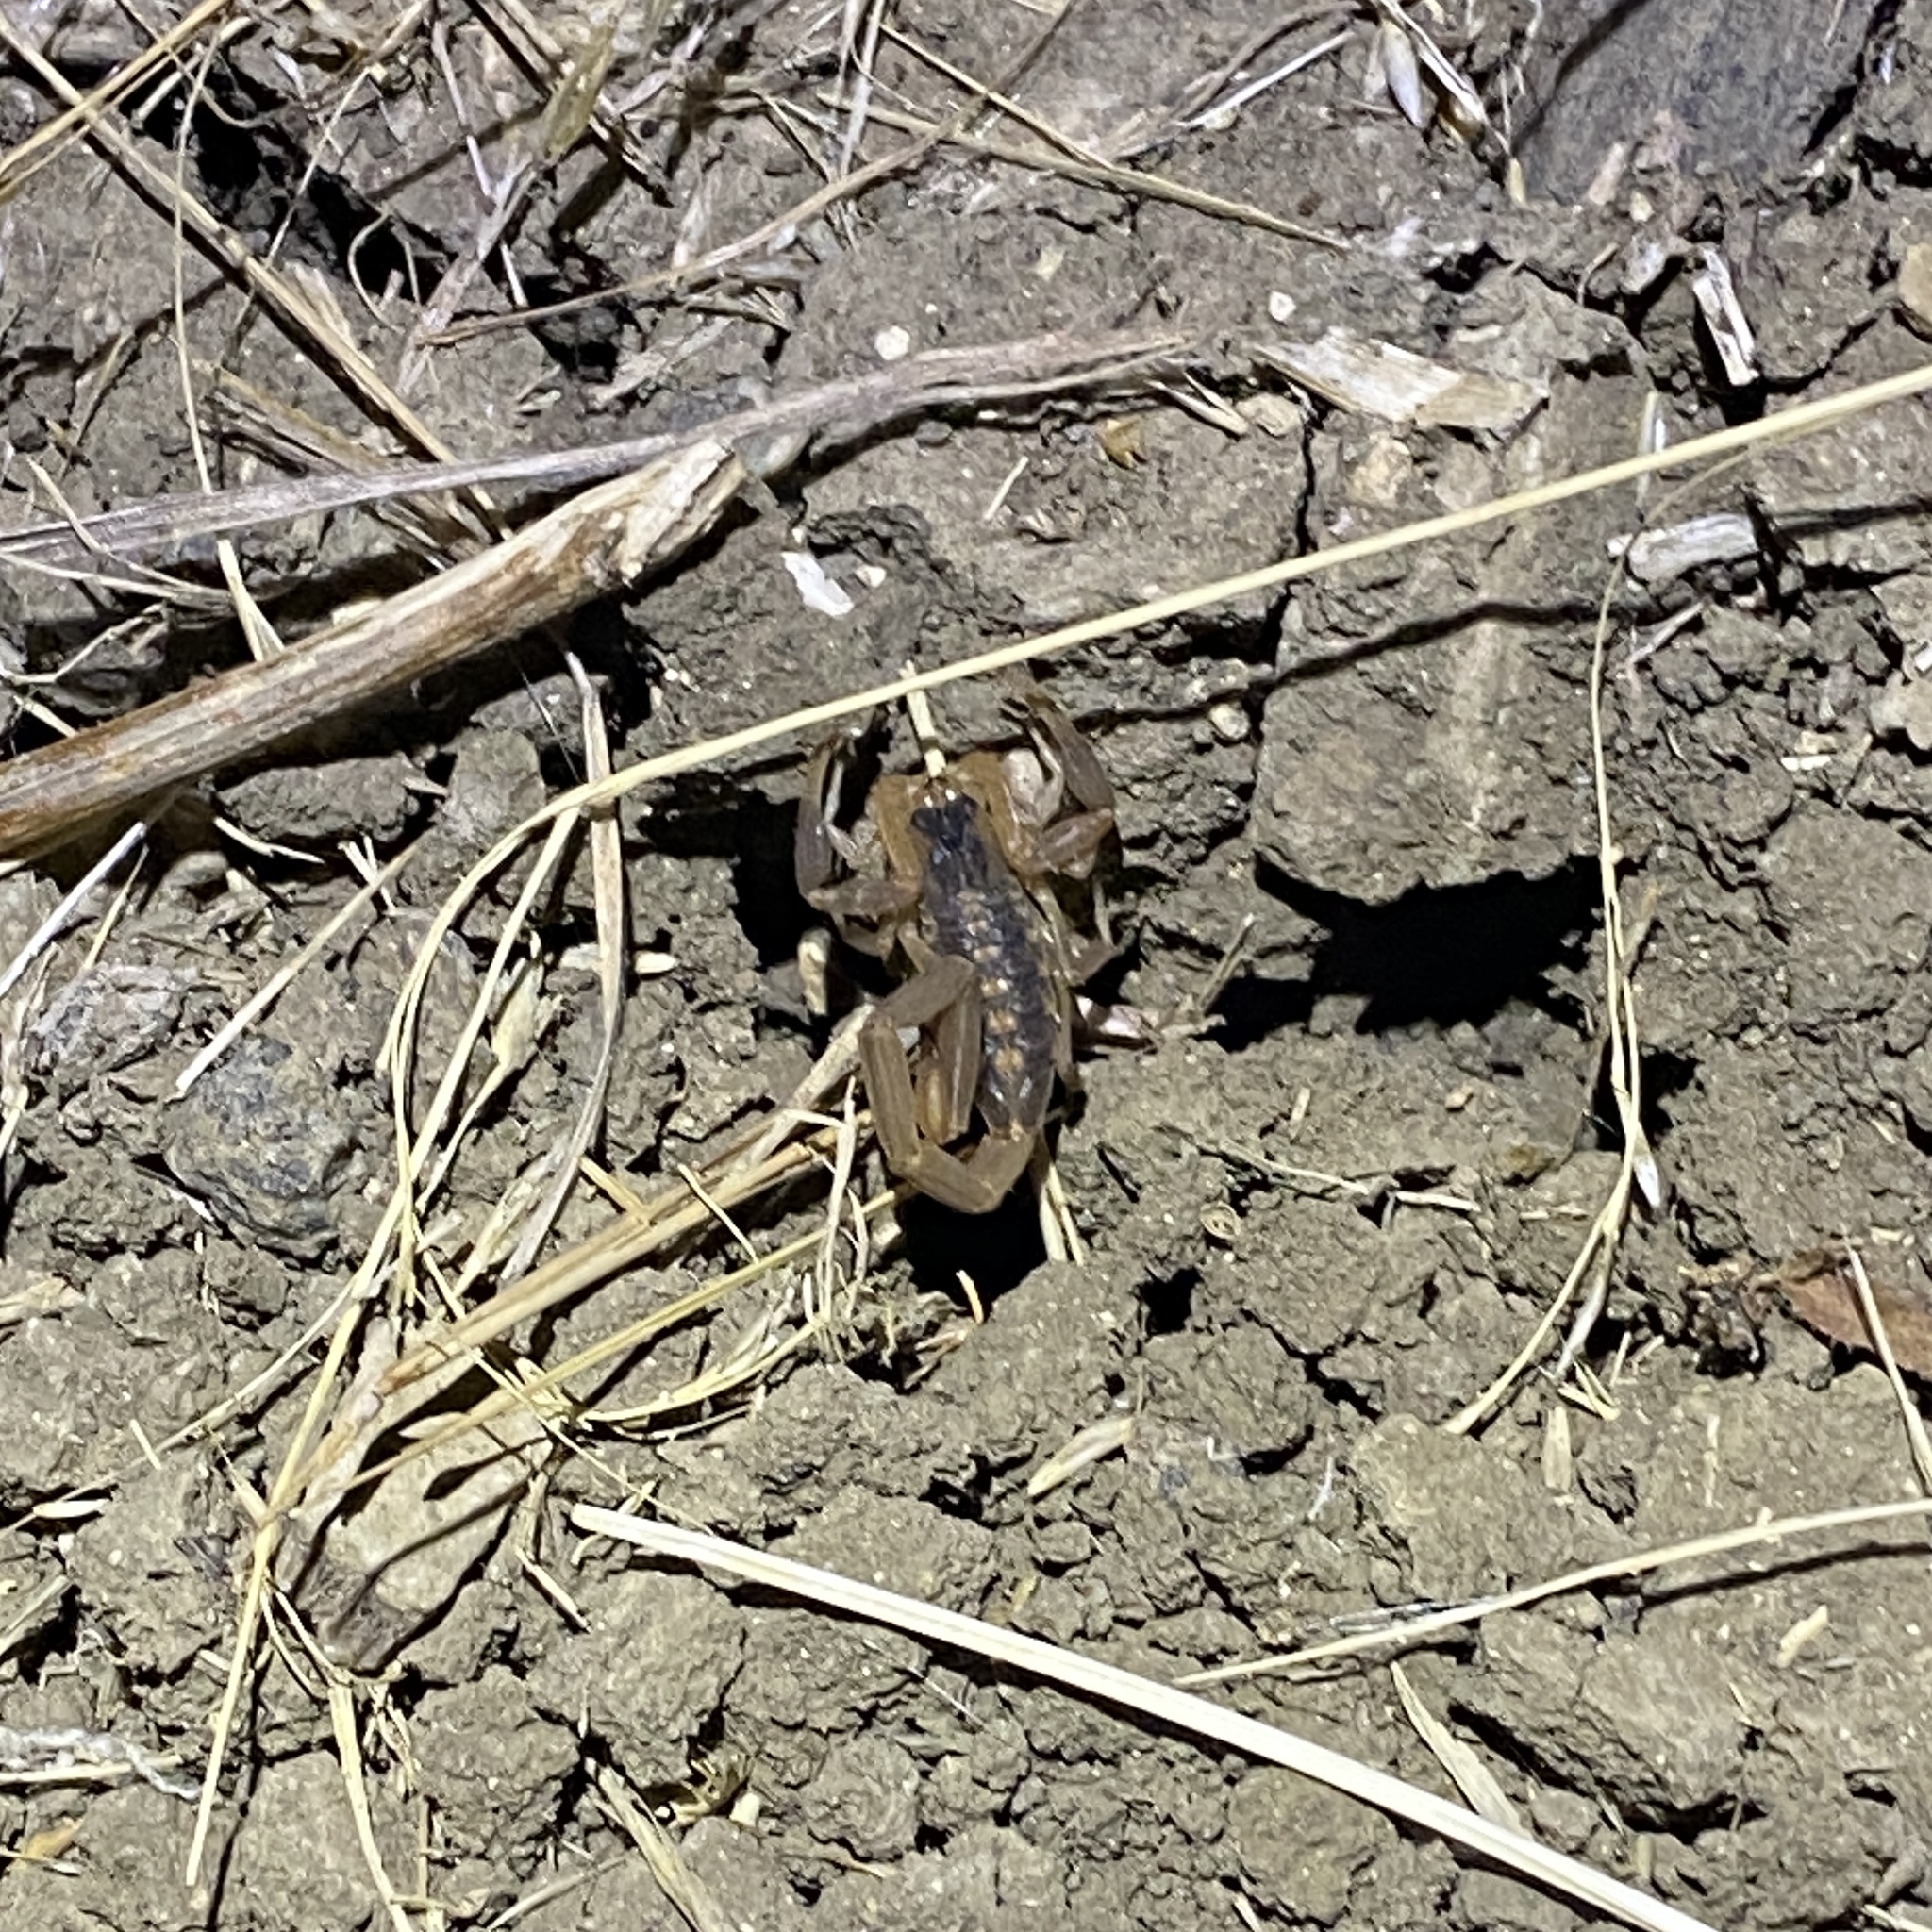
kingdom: Animalia
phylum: Arthropoda
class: Arachnida
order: Scorpiones
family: Buthidae
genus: Centruroides
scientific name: Centruroides vittatus
